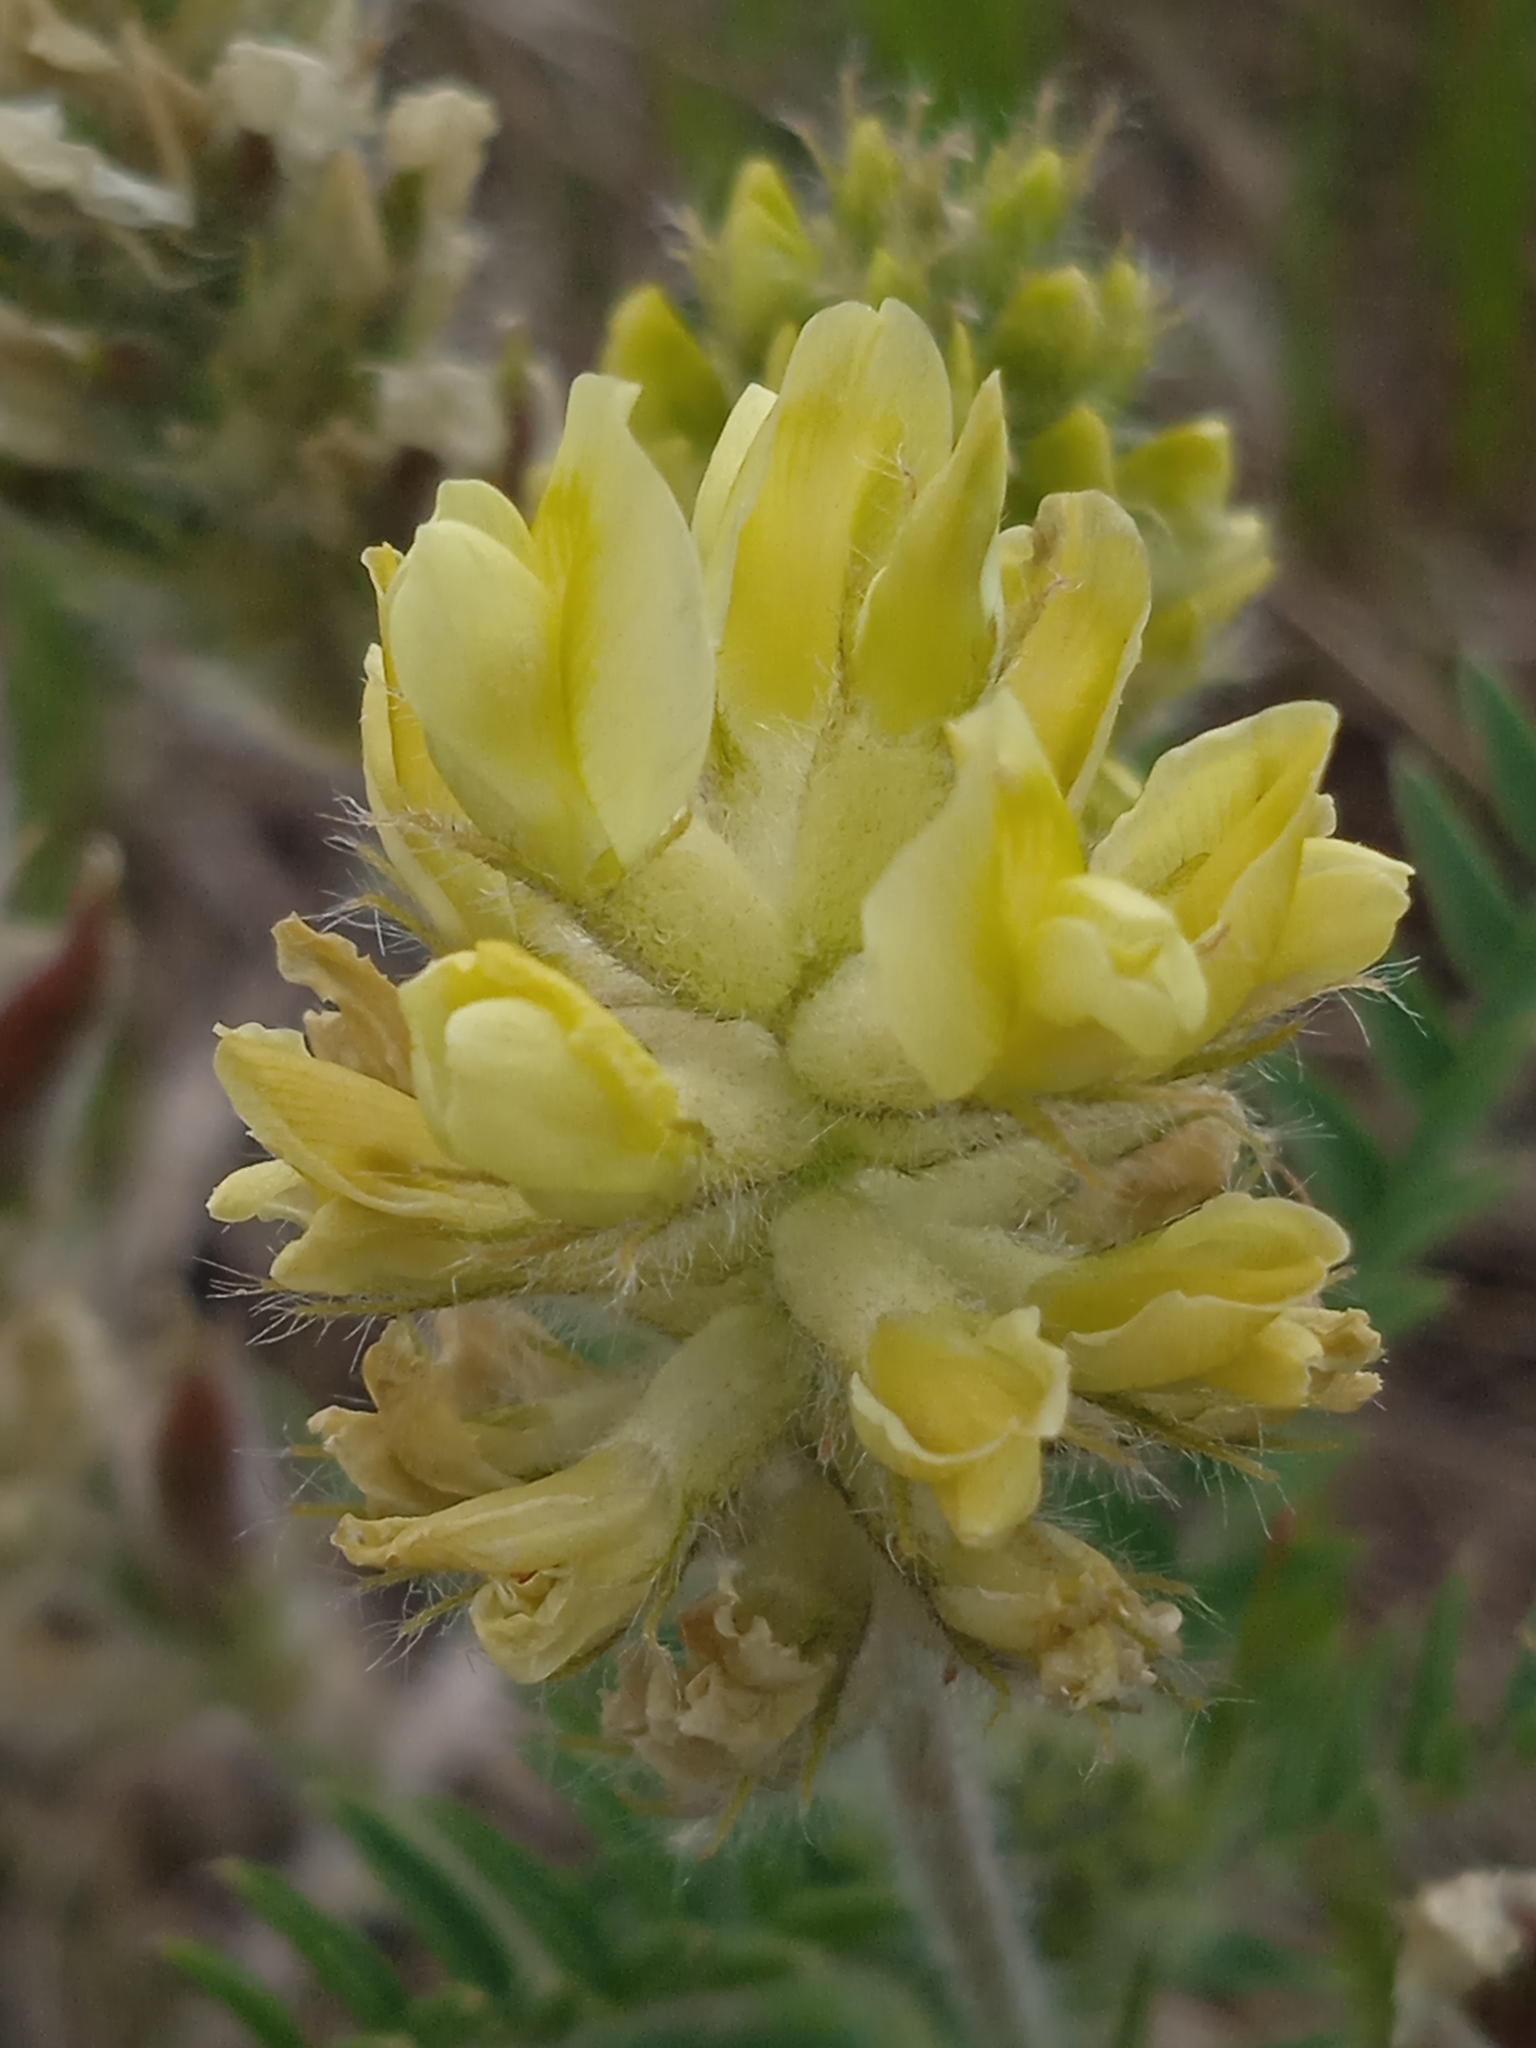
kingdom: Plantae
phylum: Tracheophyta
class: Magnoliopsida
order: Fabales
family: Fabaceae
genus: Oxytropis
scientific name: Oxytropis pilosa
